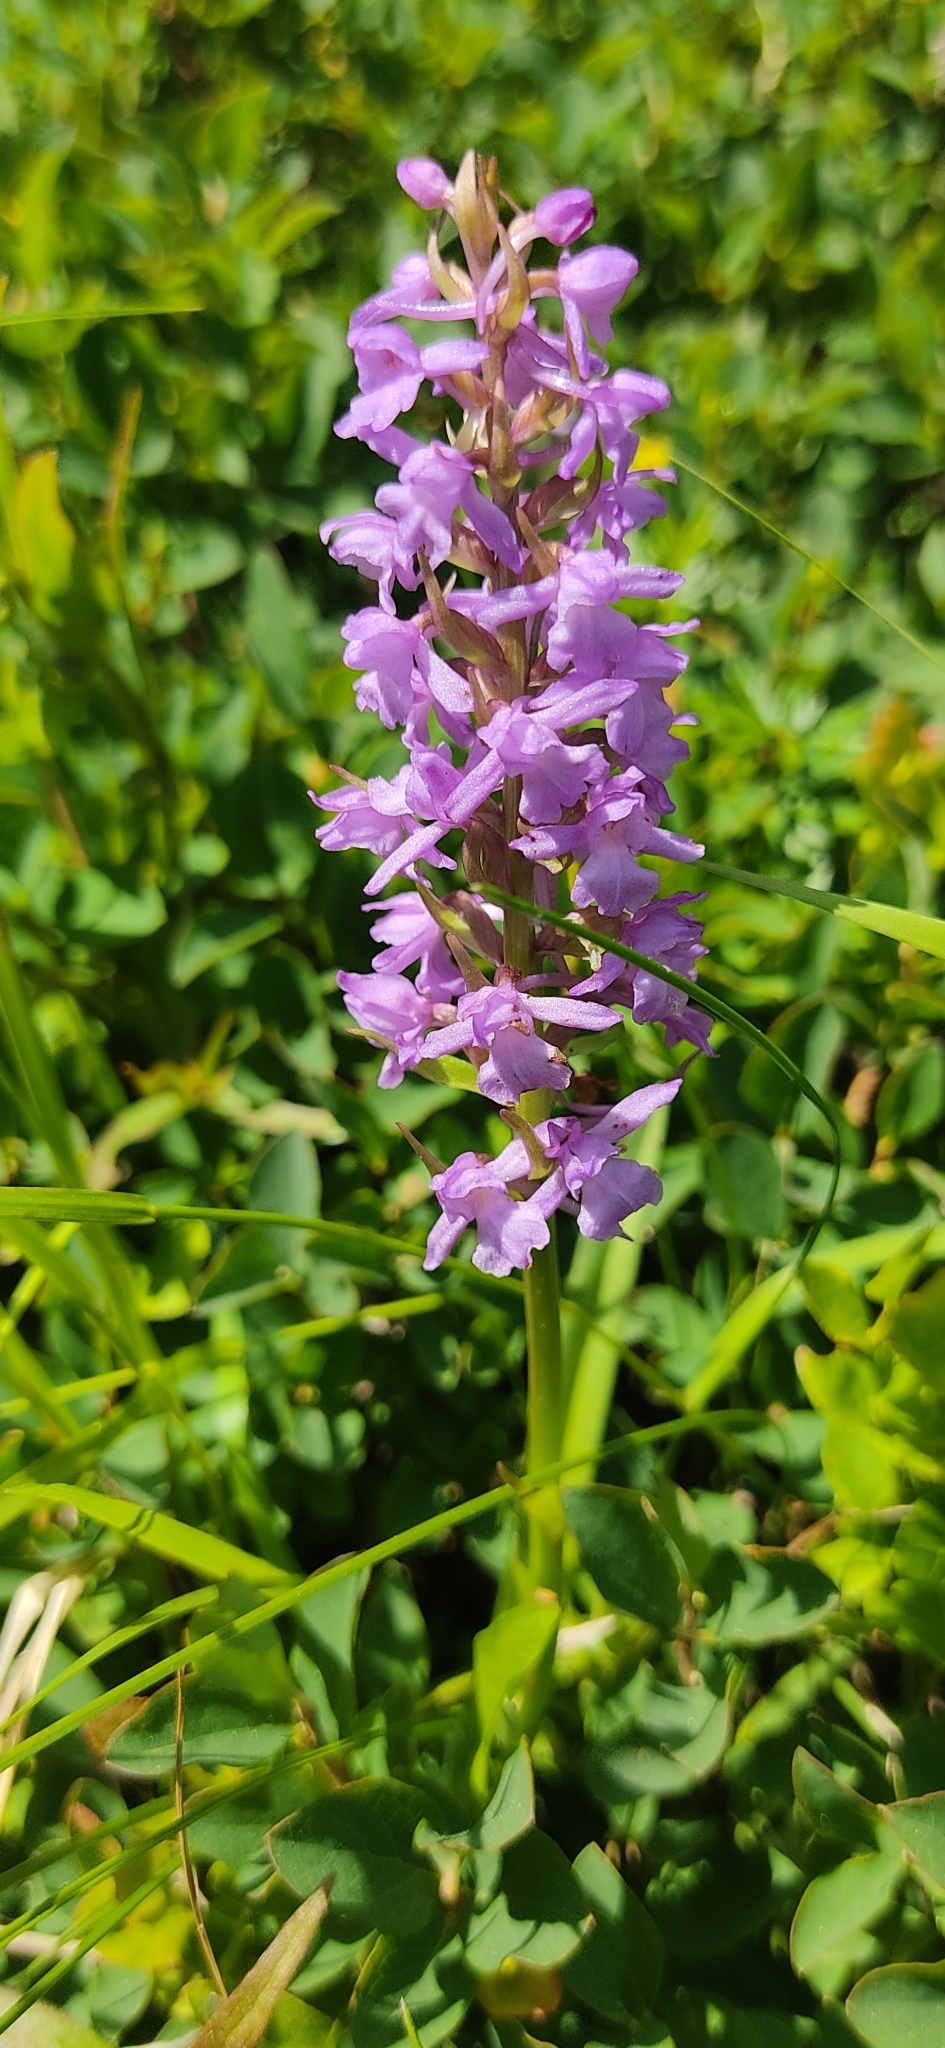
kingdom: Plantae
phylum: Tracheophyta
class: Liliopsida
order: Asparagales
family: Orchidaceae
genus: Gymnadenia
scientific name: Gymnadenia conopsea
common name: Fragrant orchid
